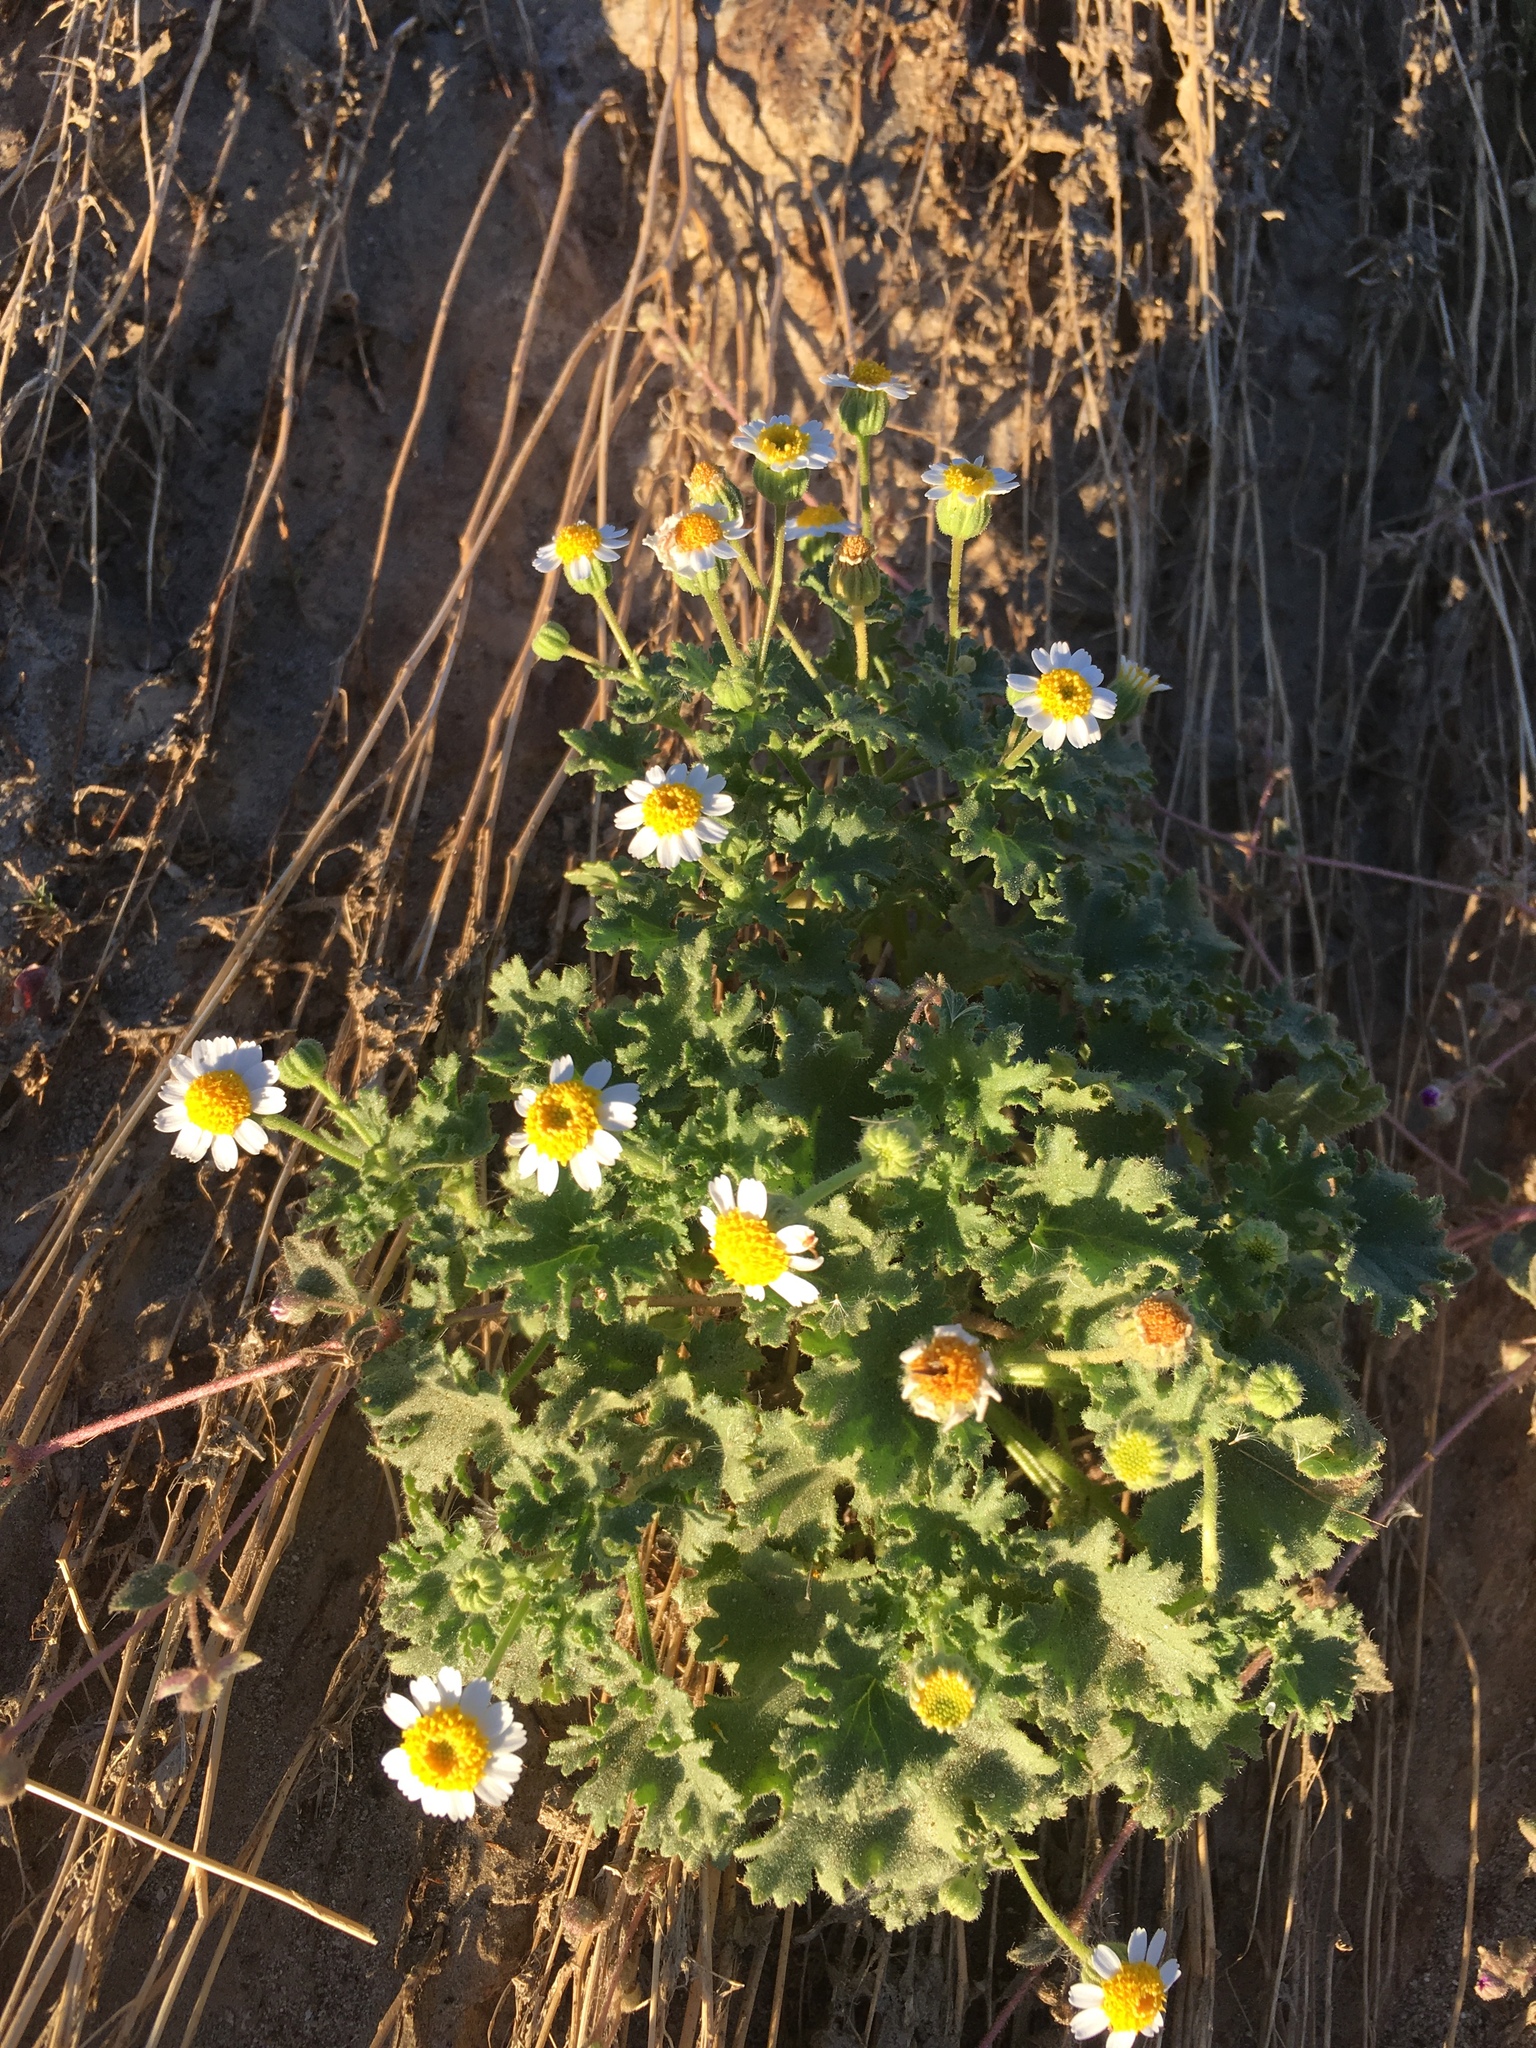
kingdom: Plantae
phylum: Tracheophyta
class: Magnoliopsida
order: Asterales
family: Asteraceae
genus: Laphamia
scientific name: Laphamia emoryi
